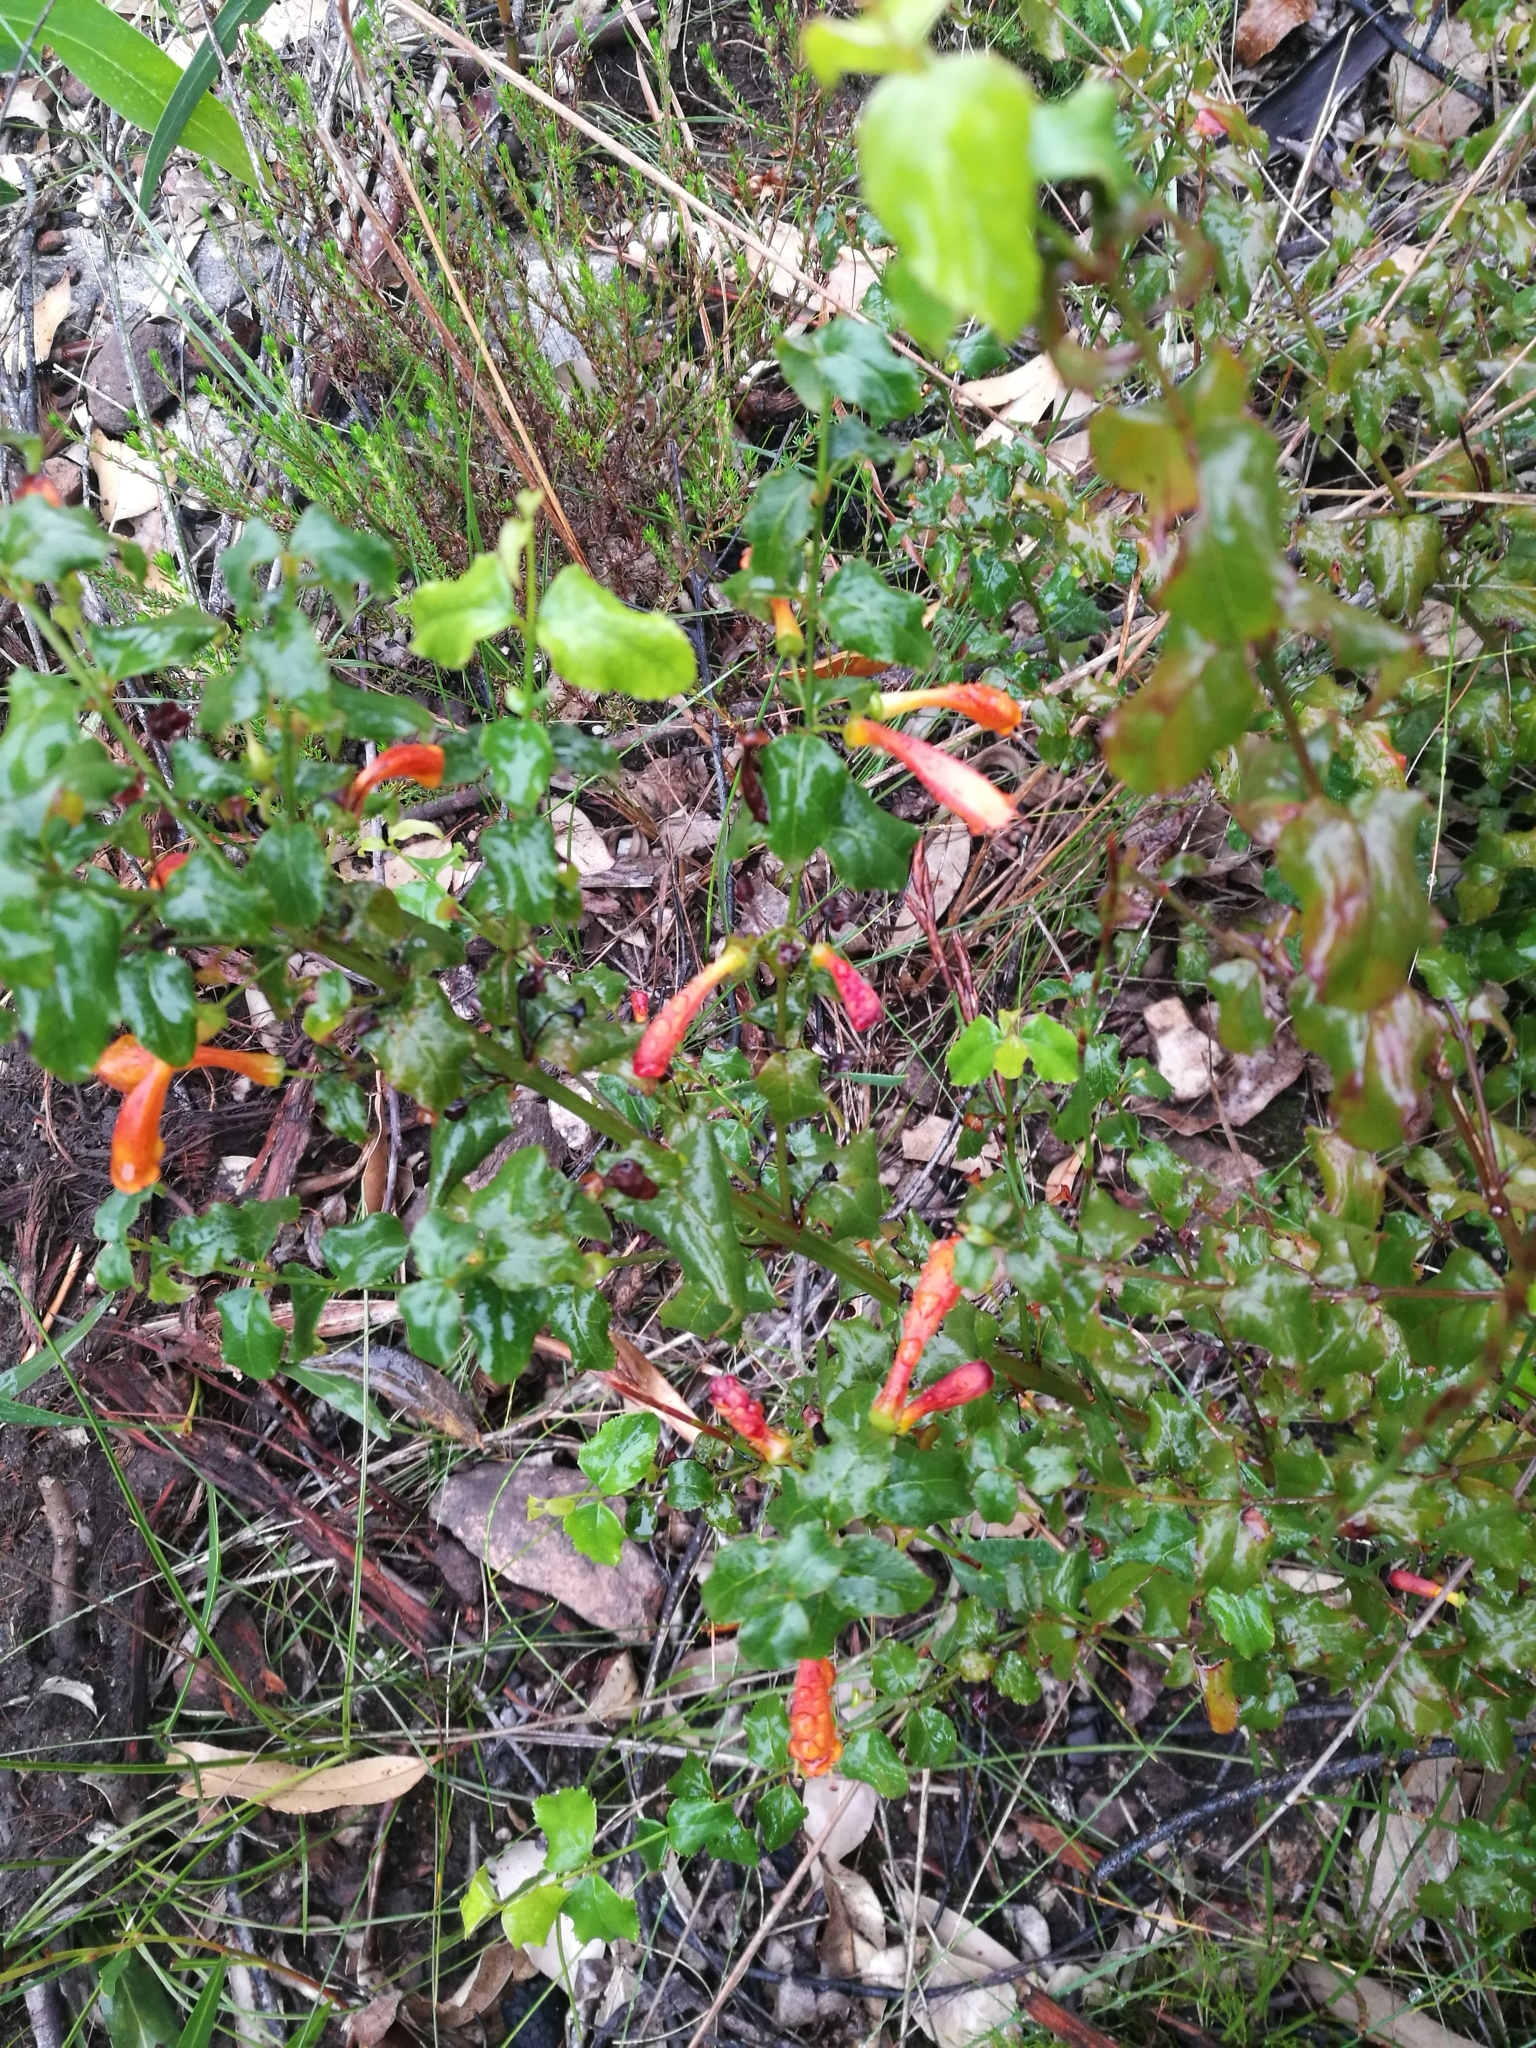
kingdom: Plantae
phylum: Tracheophyta
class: Magnoliopsida
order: Lamiales
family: Stilbaceae
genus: Halleria
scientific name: Halleria lucida
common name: Tree fuschia
